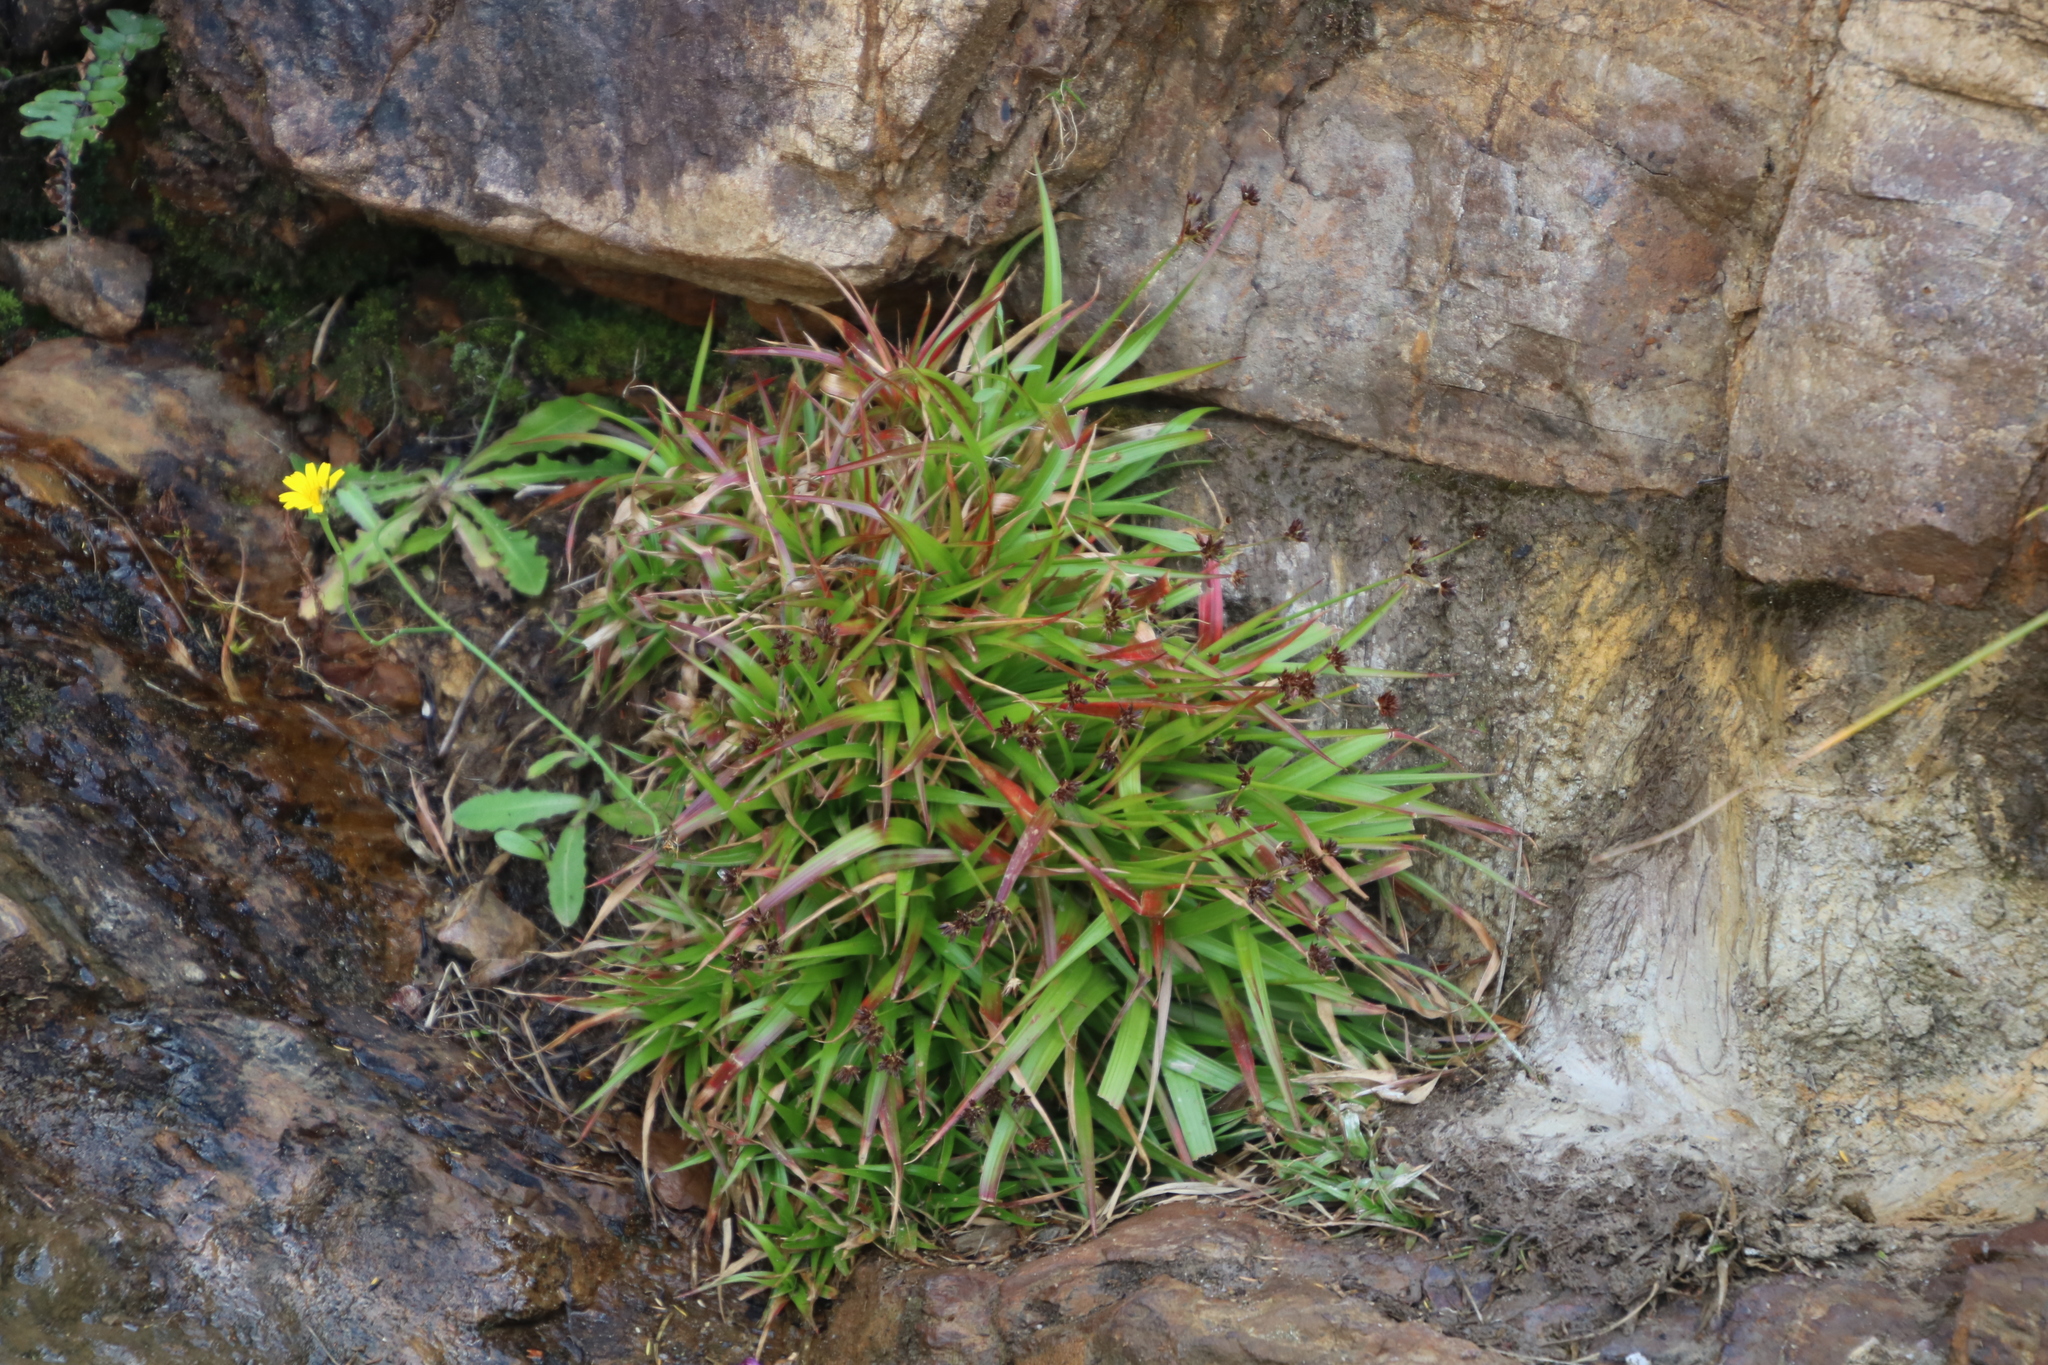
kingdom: Plantae
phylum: Tracheophyta
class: Liliopsida
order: Poales
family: Juncaceae
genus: Juncus
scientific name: Juncus lomatophyllus
